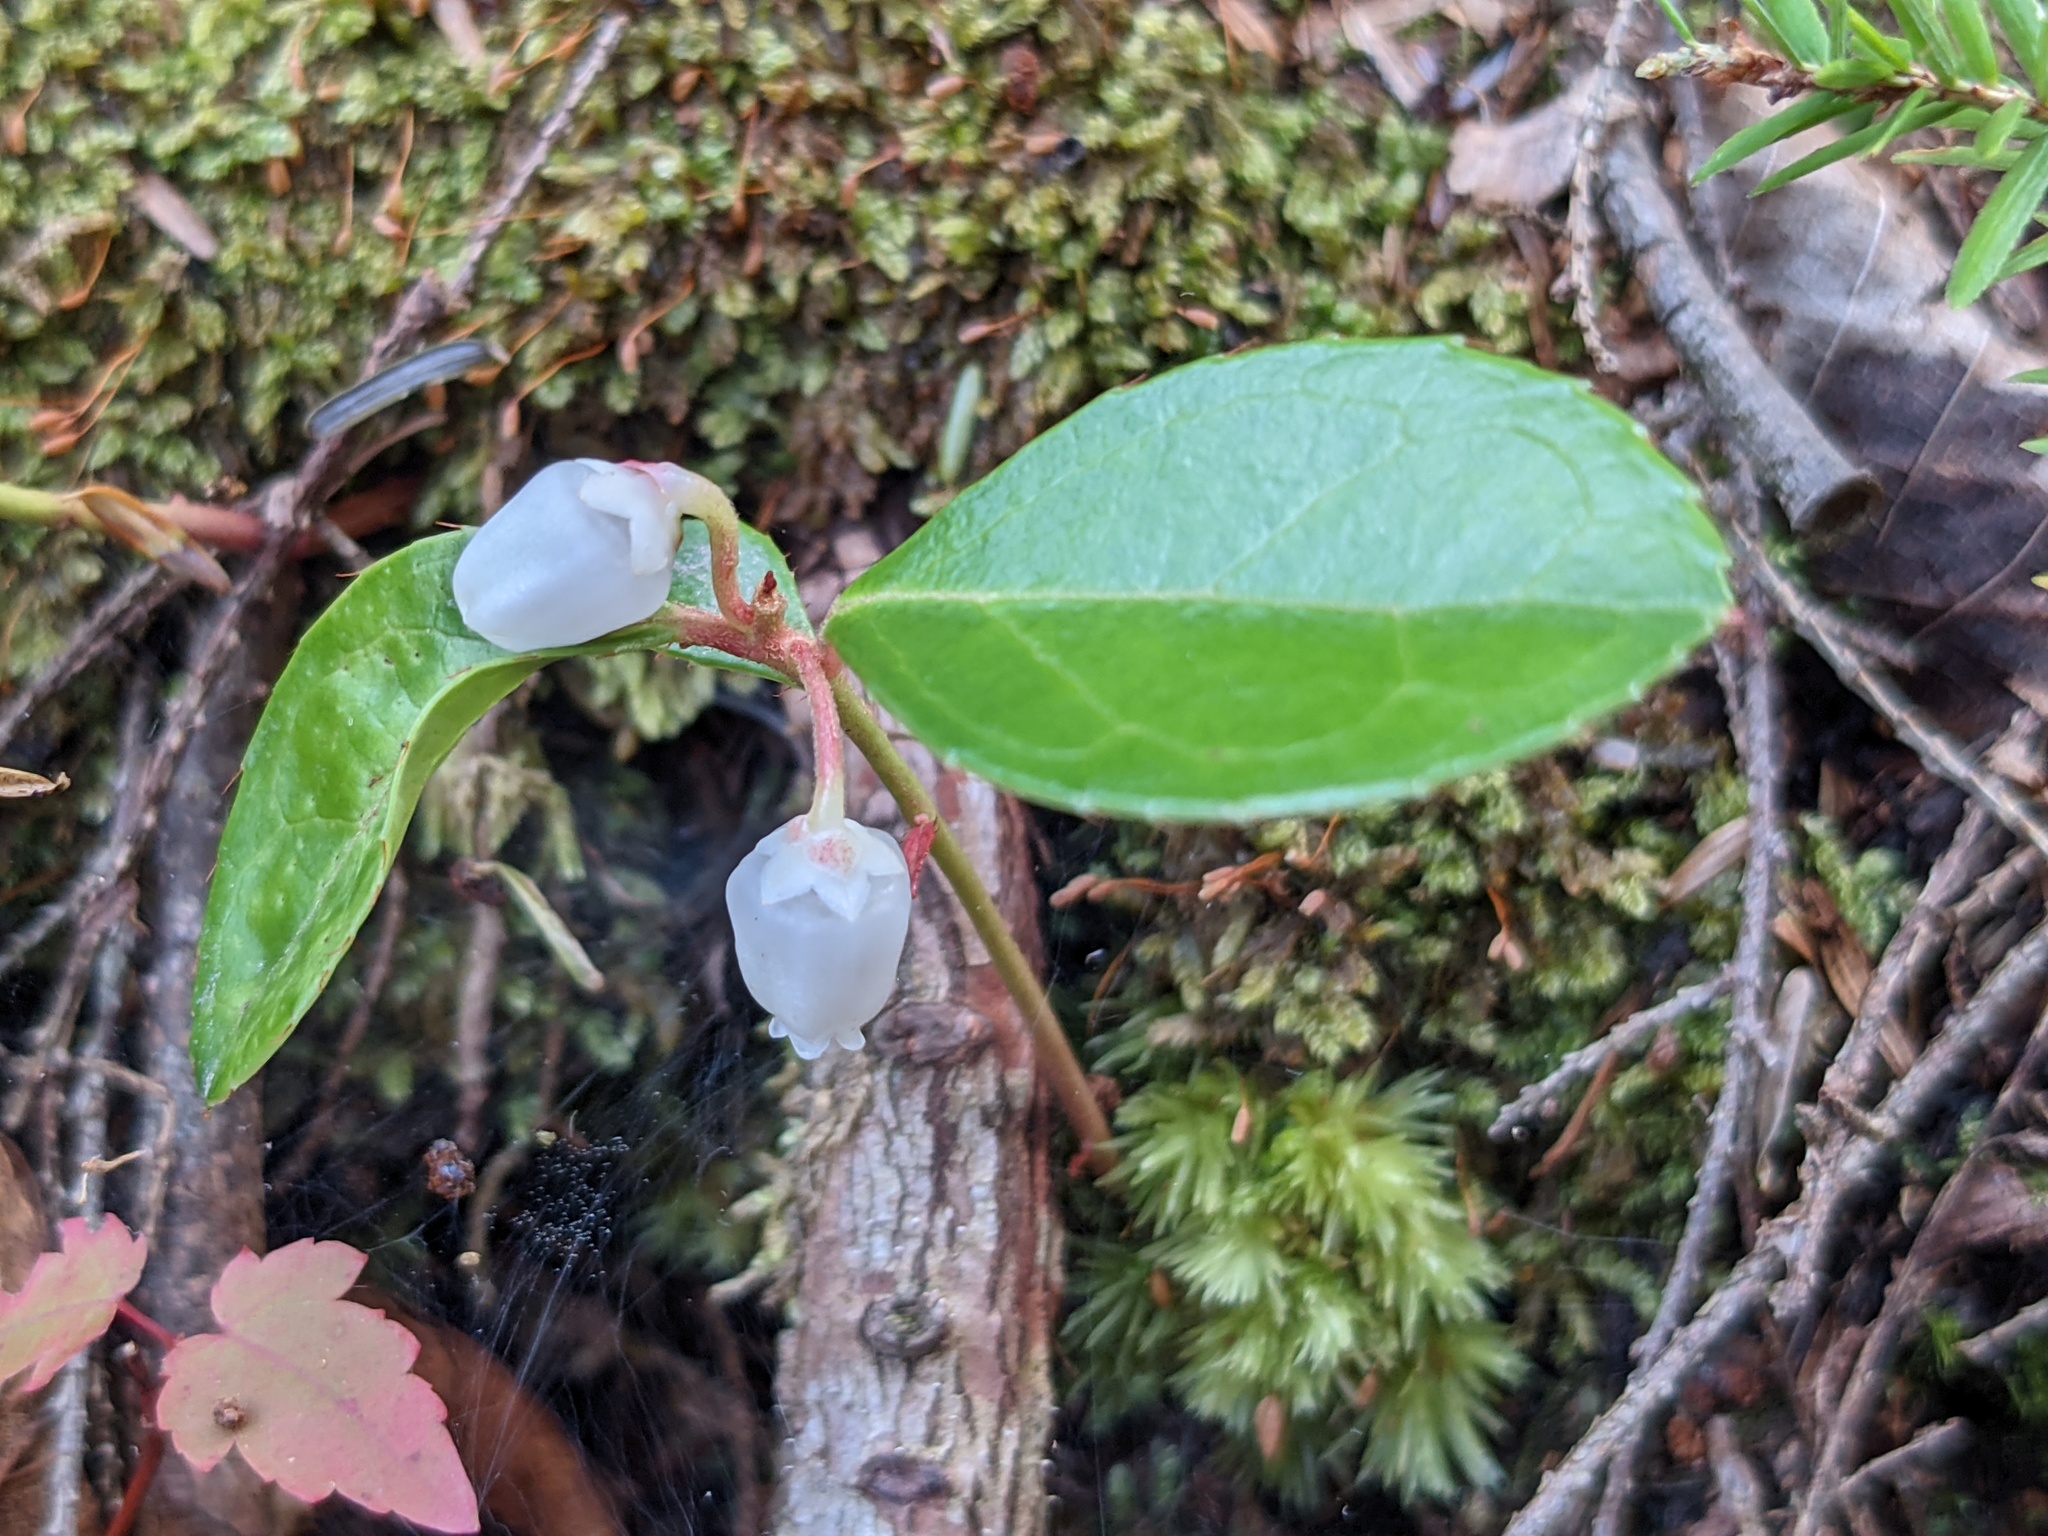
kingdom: Plantae
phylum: Tracheophyta
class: Magnoliopsida
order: Ericales
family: Ericaceae
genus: Gaultheria
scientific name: Gaultheria procumbens
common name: Checkerberry
